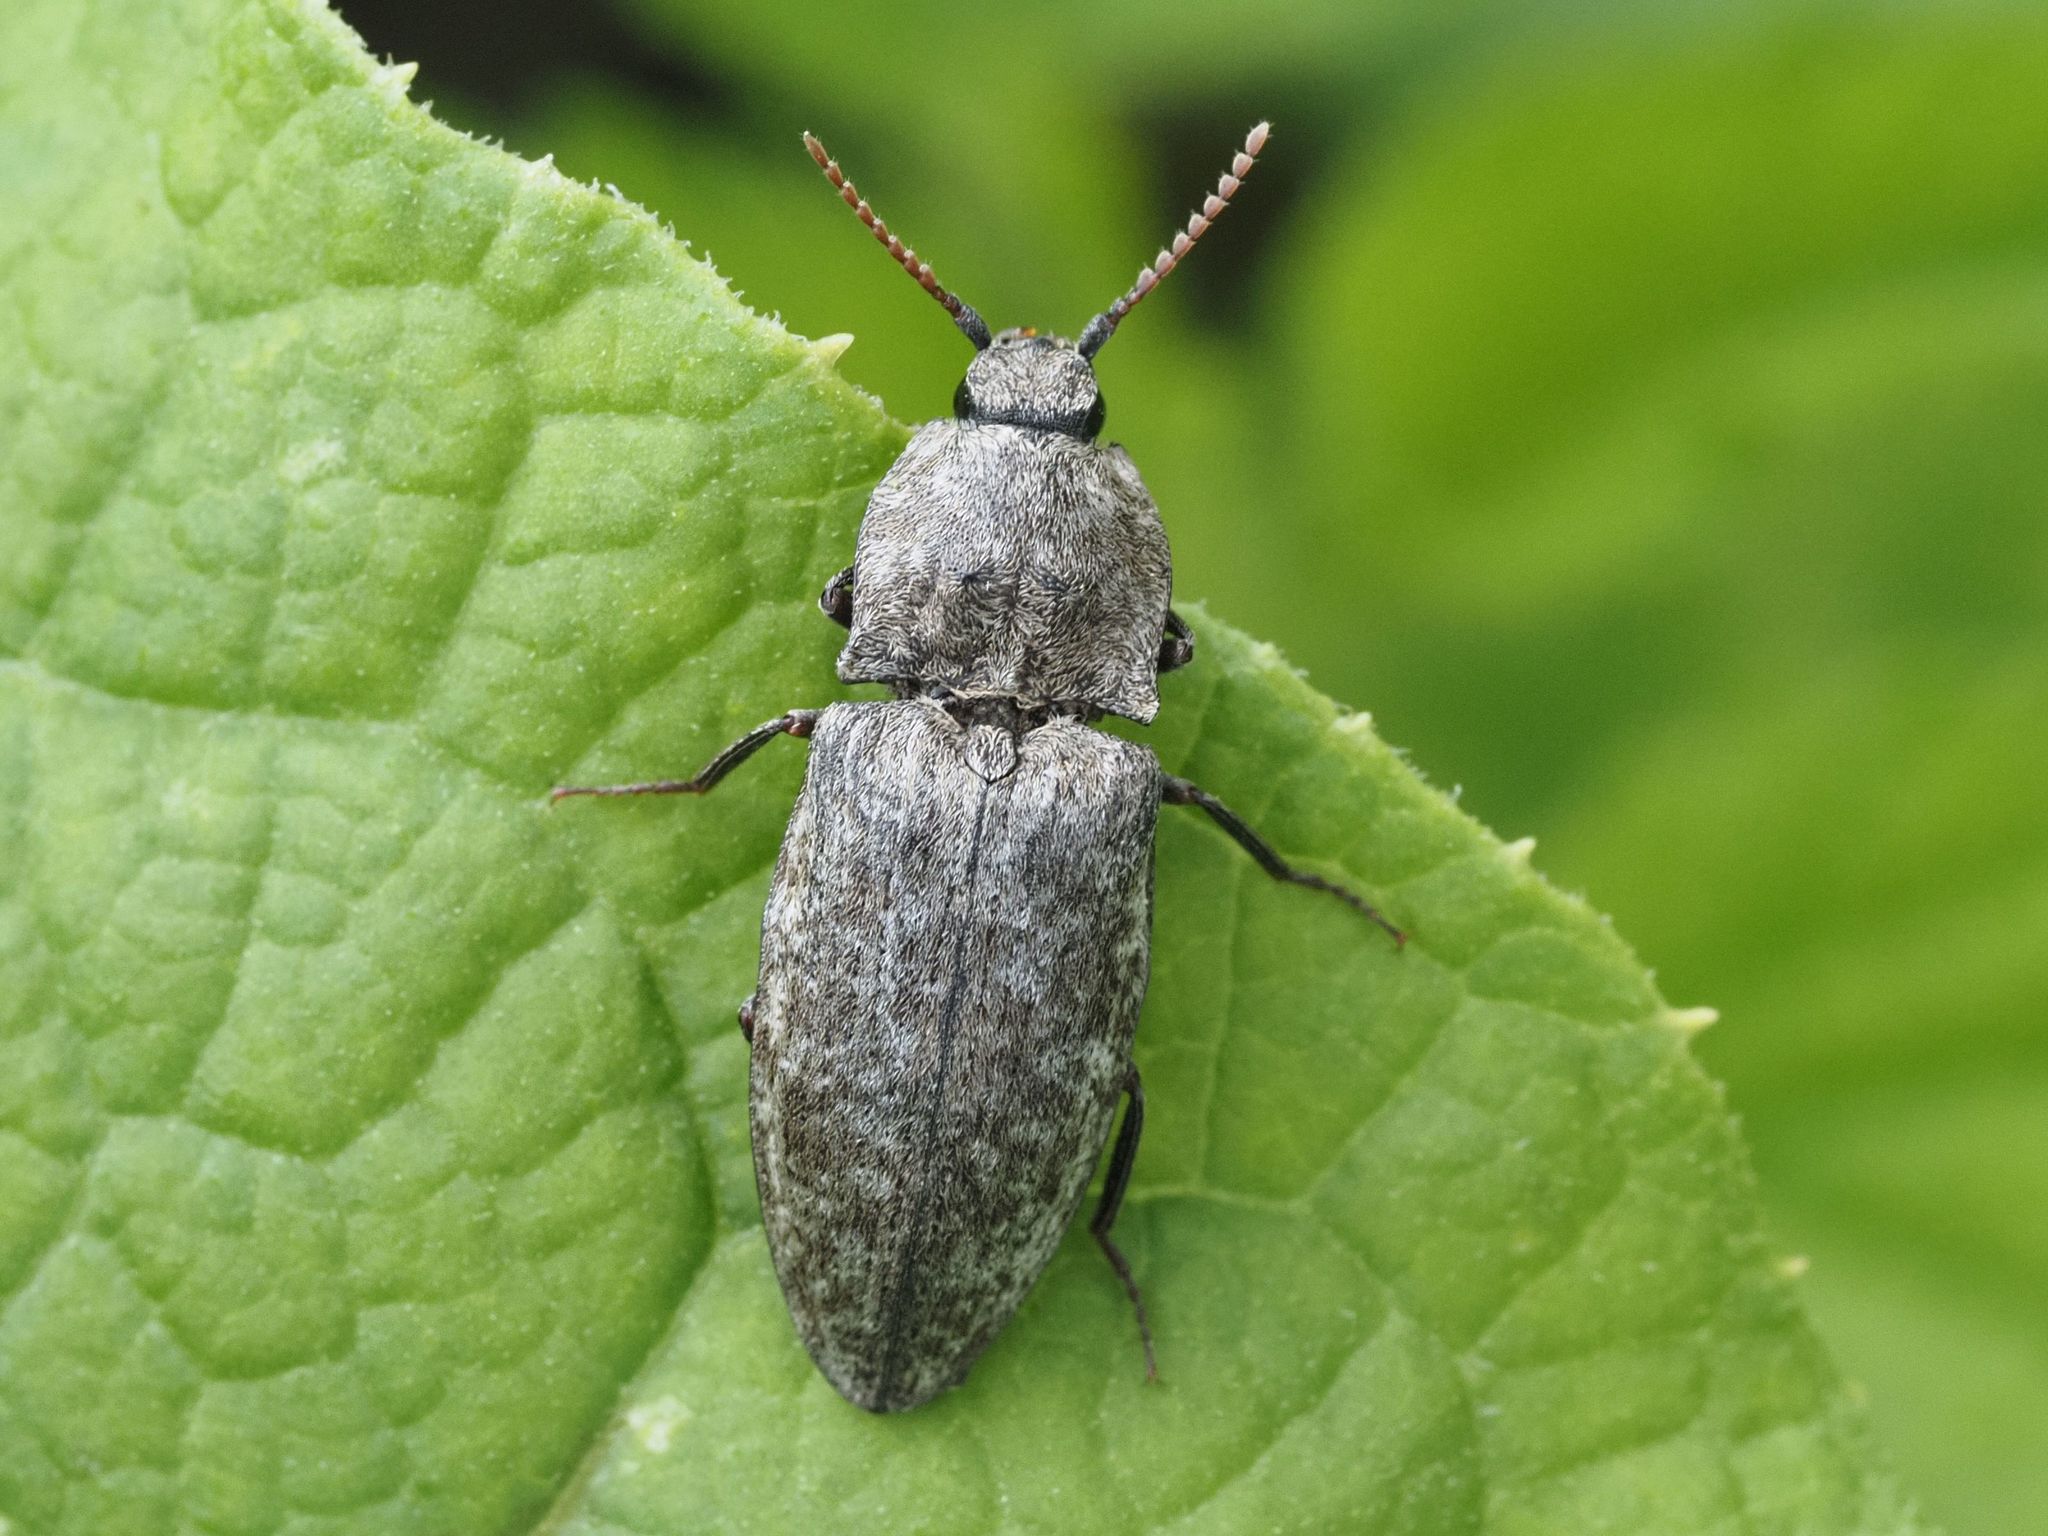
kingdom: Animalia
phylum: Arthropoda
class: Insecta
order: Coleoptera
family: Elateridae
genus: Agrypnus
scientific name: Agrypnus murinus
